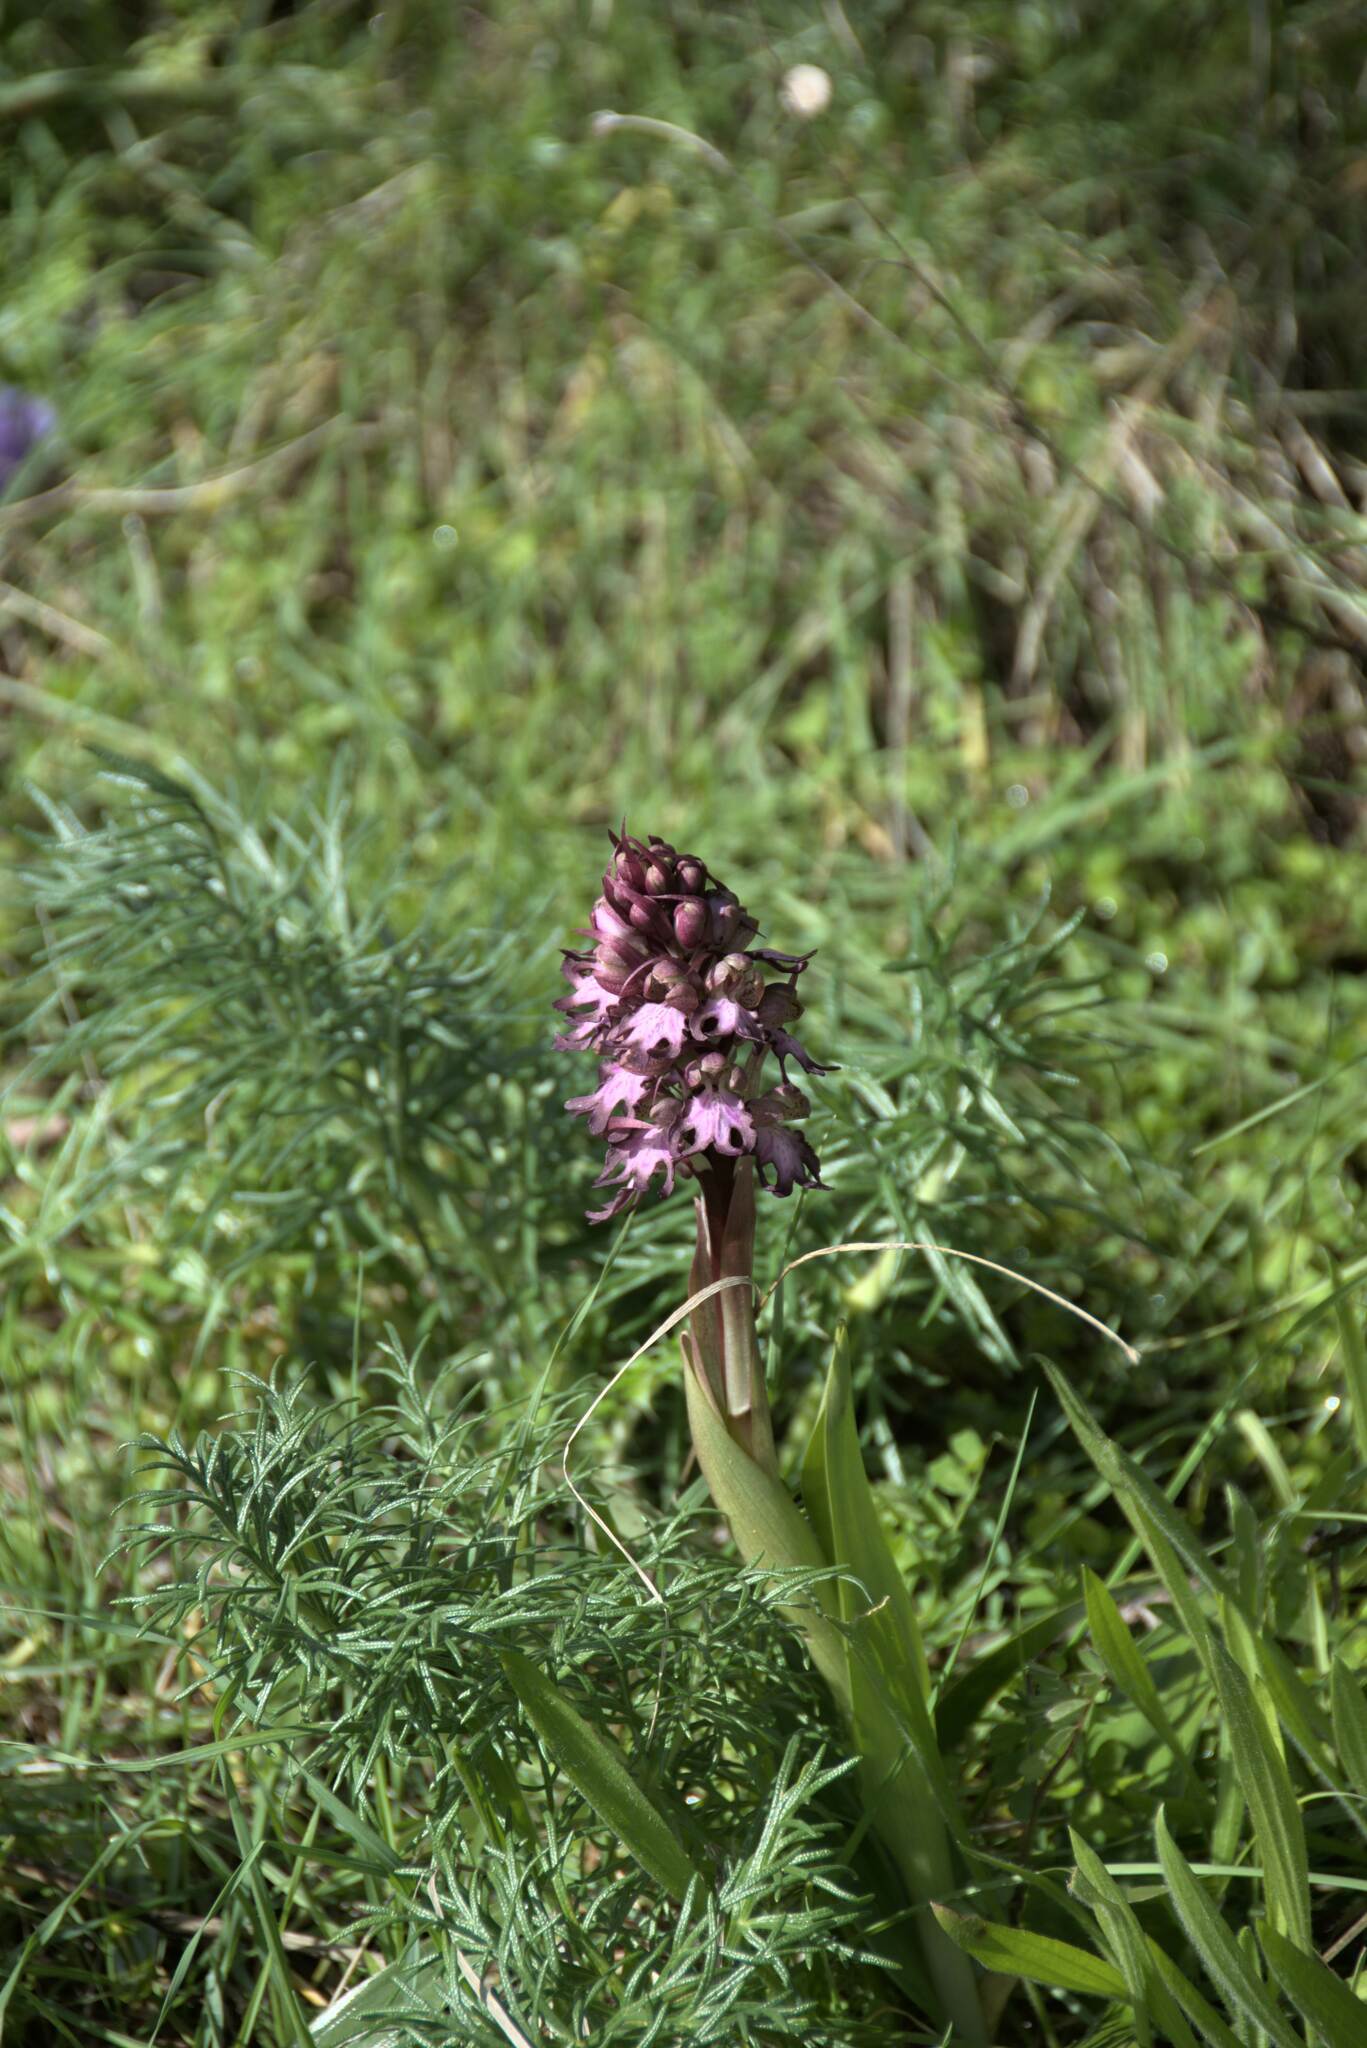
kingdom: Plantae
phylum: Tracheophyta
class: Liliopsida
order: Asparagales
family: Orchidaceae
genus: Himantoglossum
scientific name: Himantoglossum robertianum
